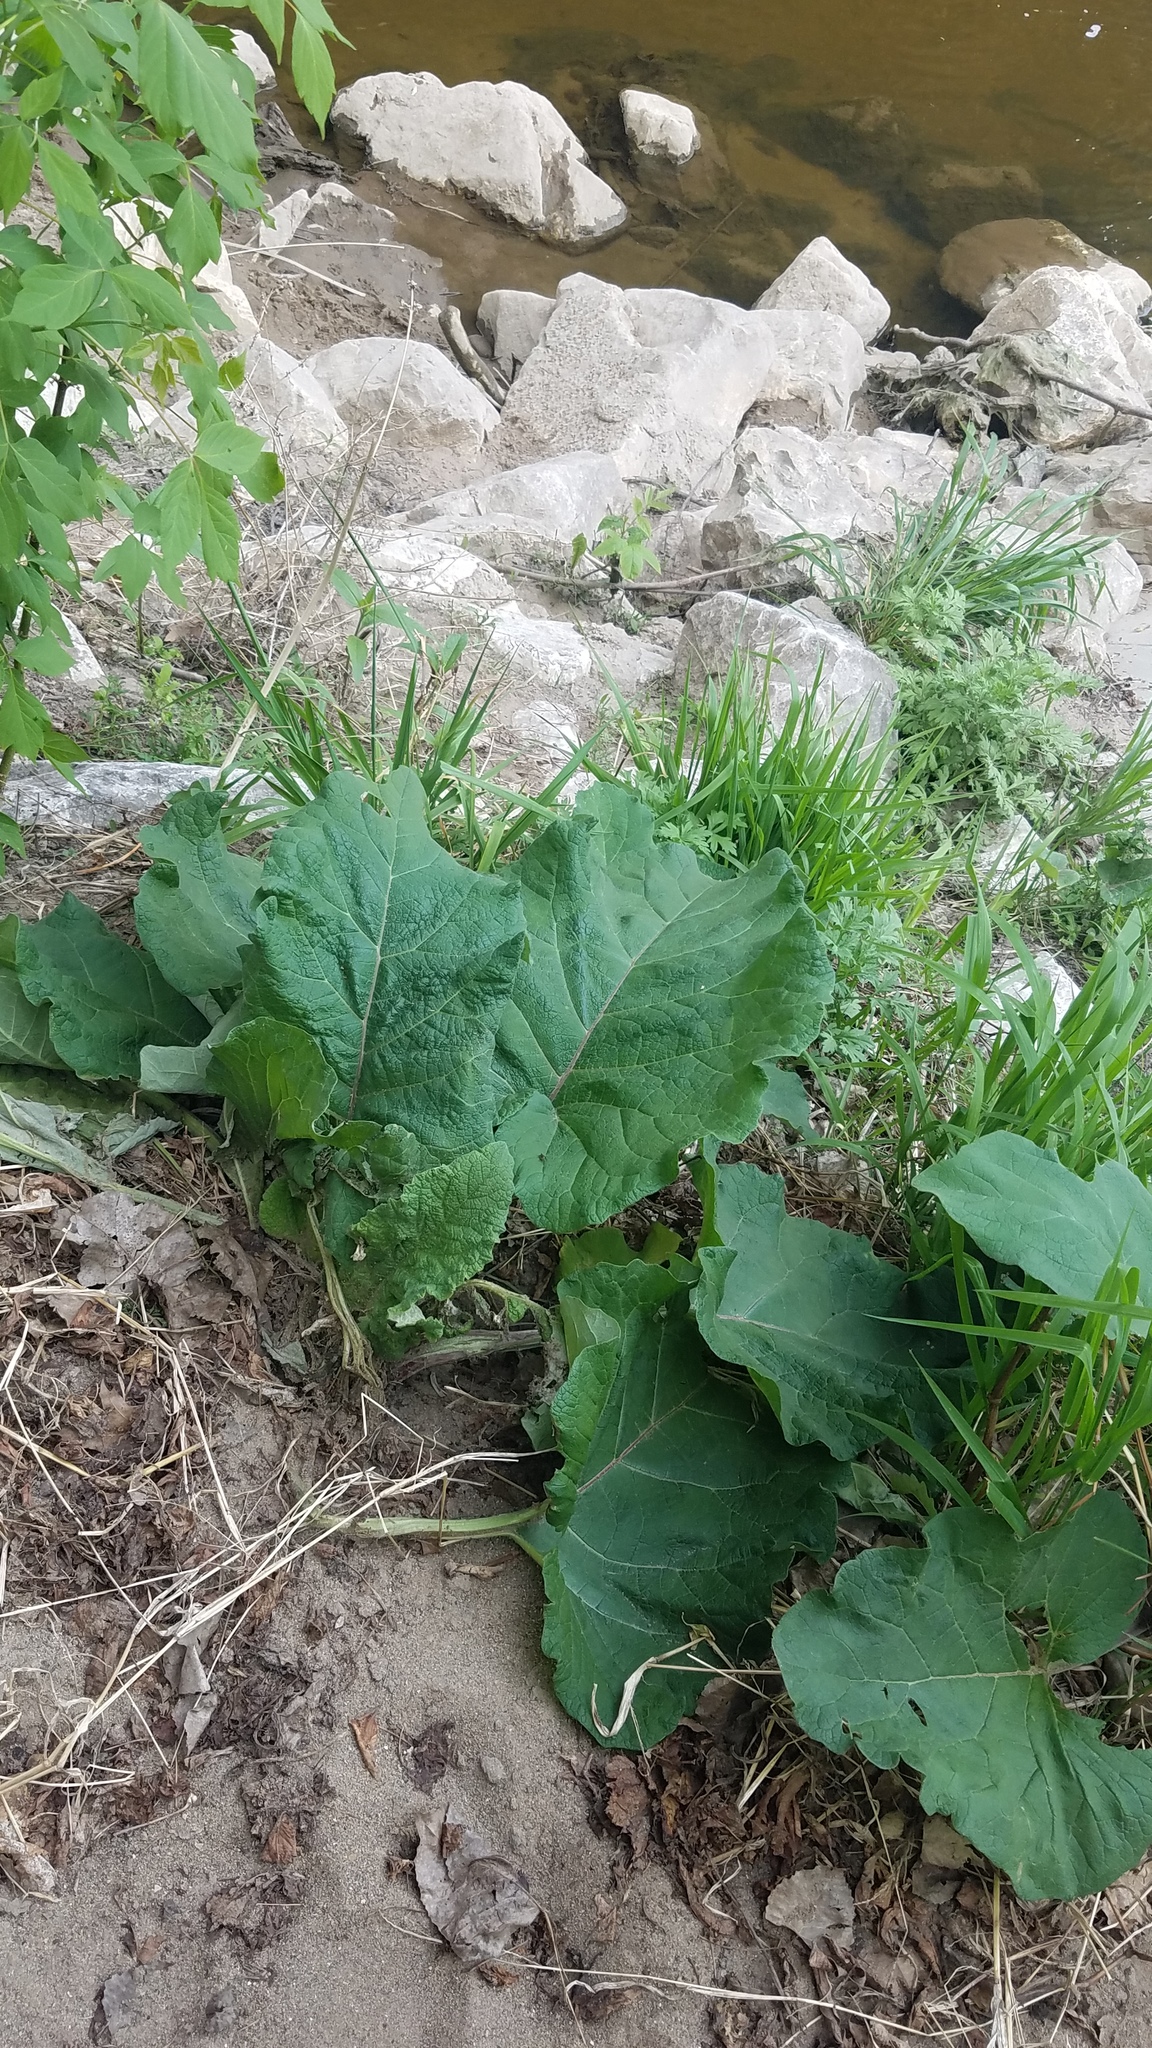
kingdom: Plantae
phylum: Tracheophyta
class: Magnoliopsida
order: Asterales
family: Asteraceae
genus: Arctium
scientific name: Arctium
